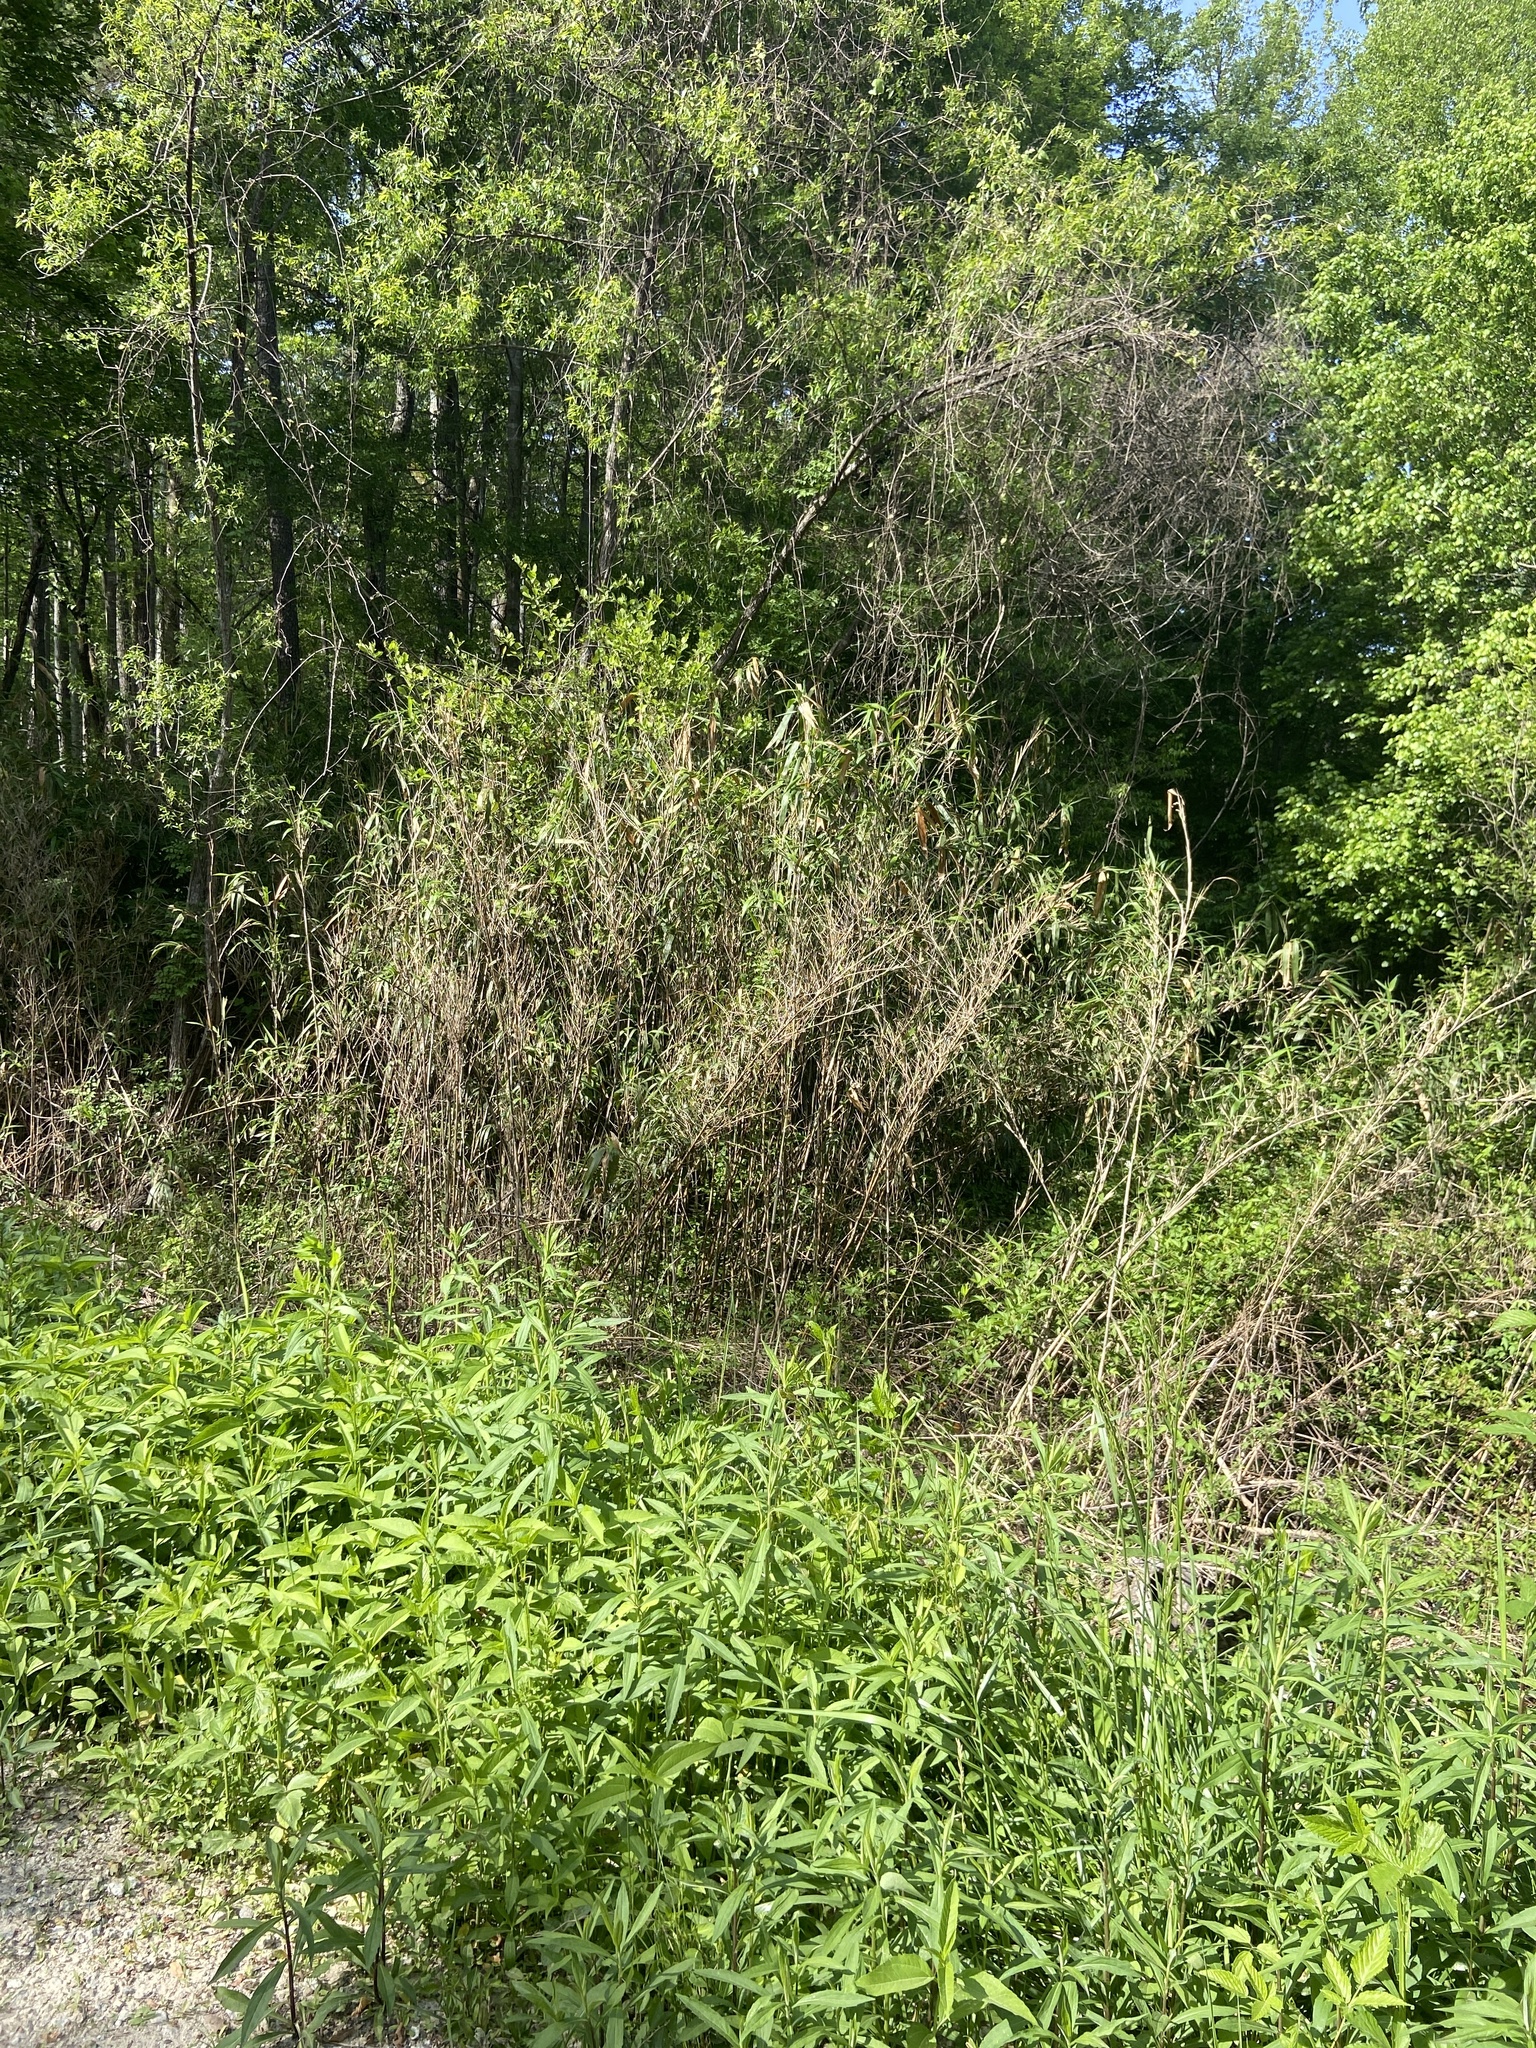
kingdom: Plantae
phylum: Tracheophyta
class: Liliopsida
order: Poales
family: Poaceae
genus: Arundinaria
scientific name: Arundinaria gigantea
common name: Giant cane
